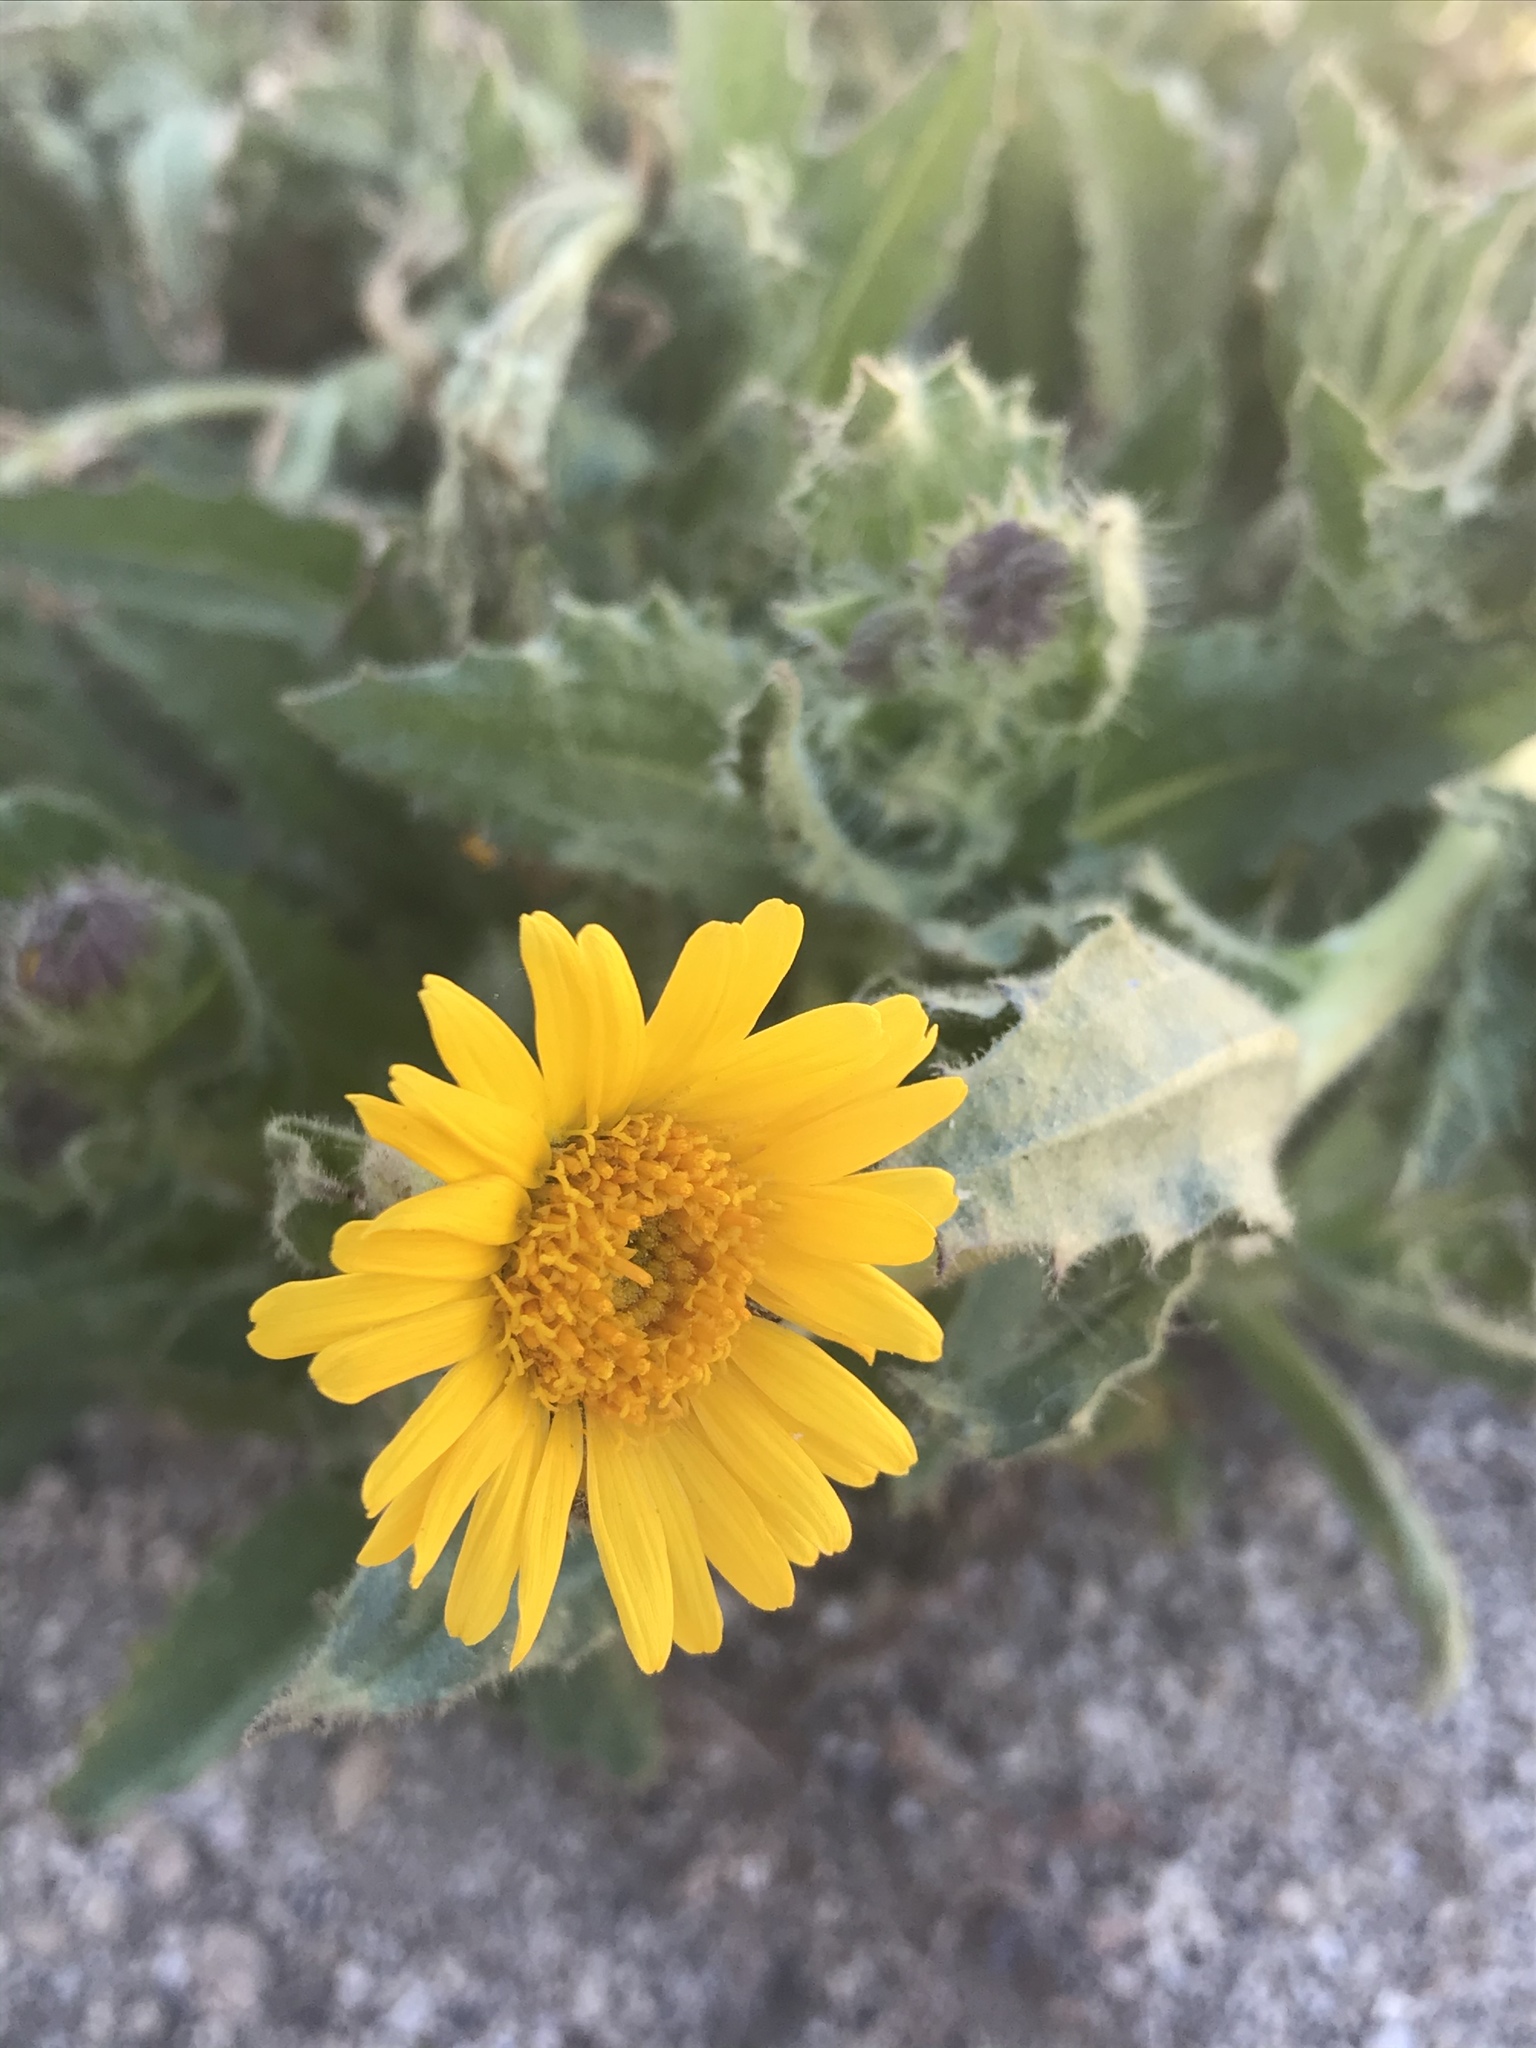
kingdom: Plantae
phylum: Tracheophyta
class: Magnoliopsida
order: Asterales
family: Asteraceae
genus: Hulsea
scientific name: Hulsea mexicana
